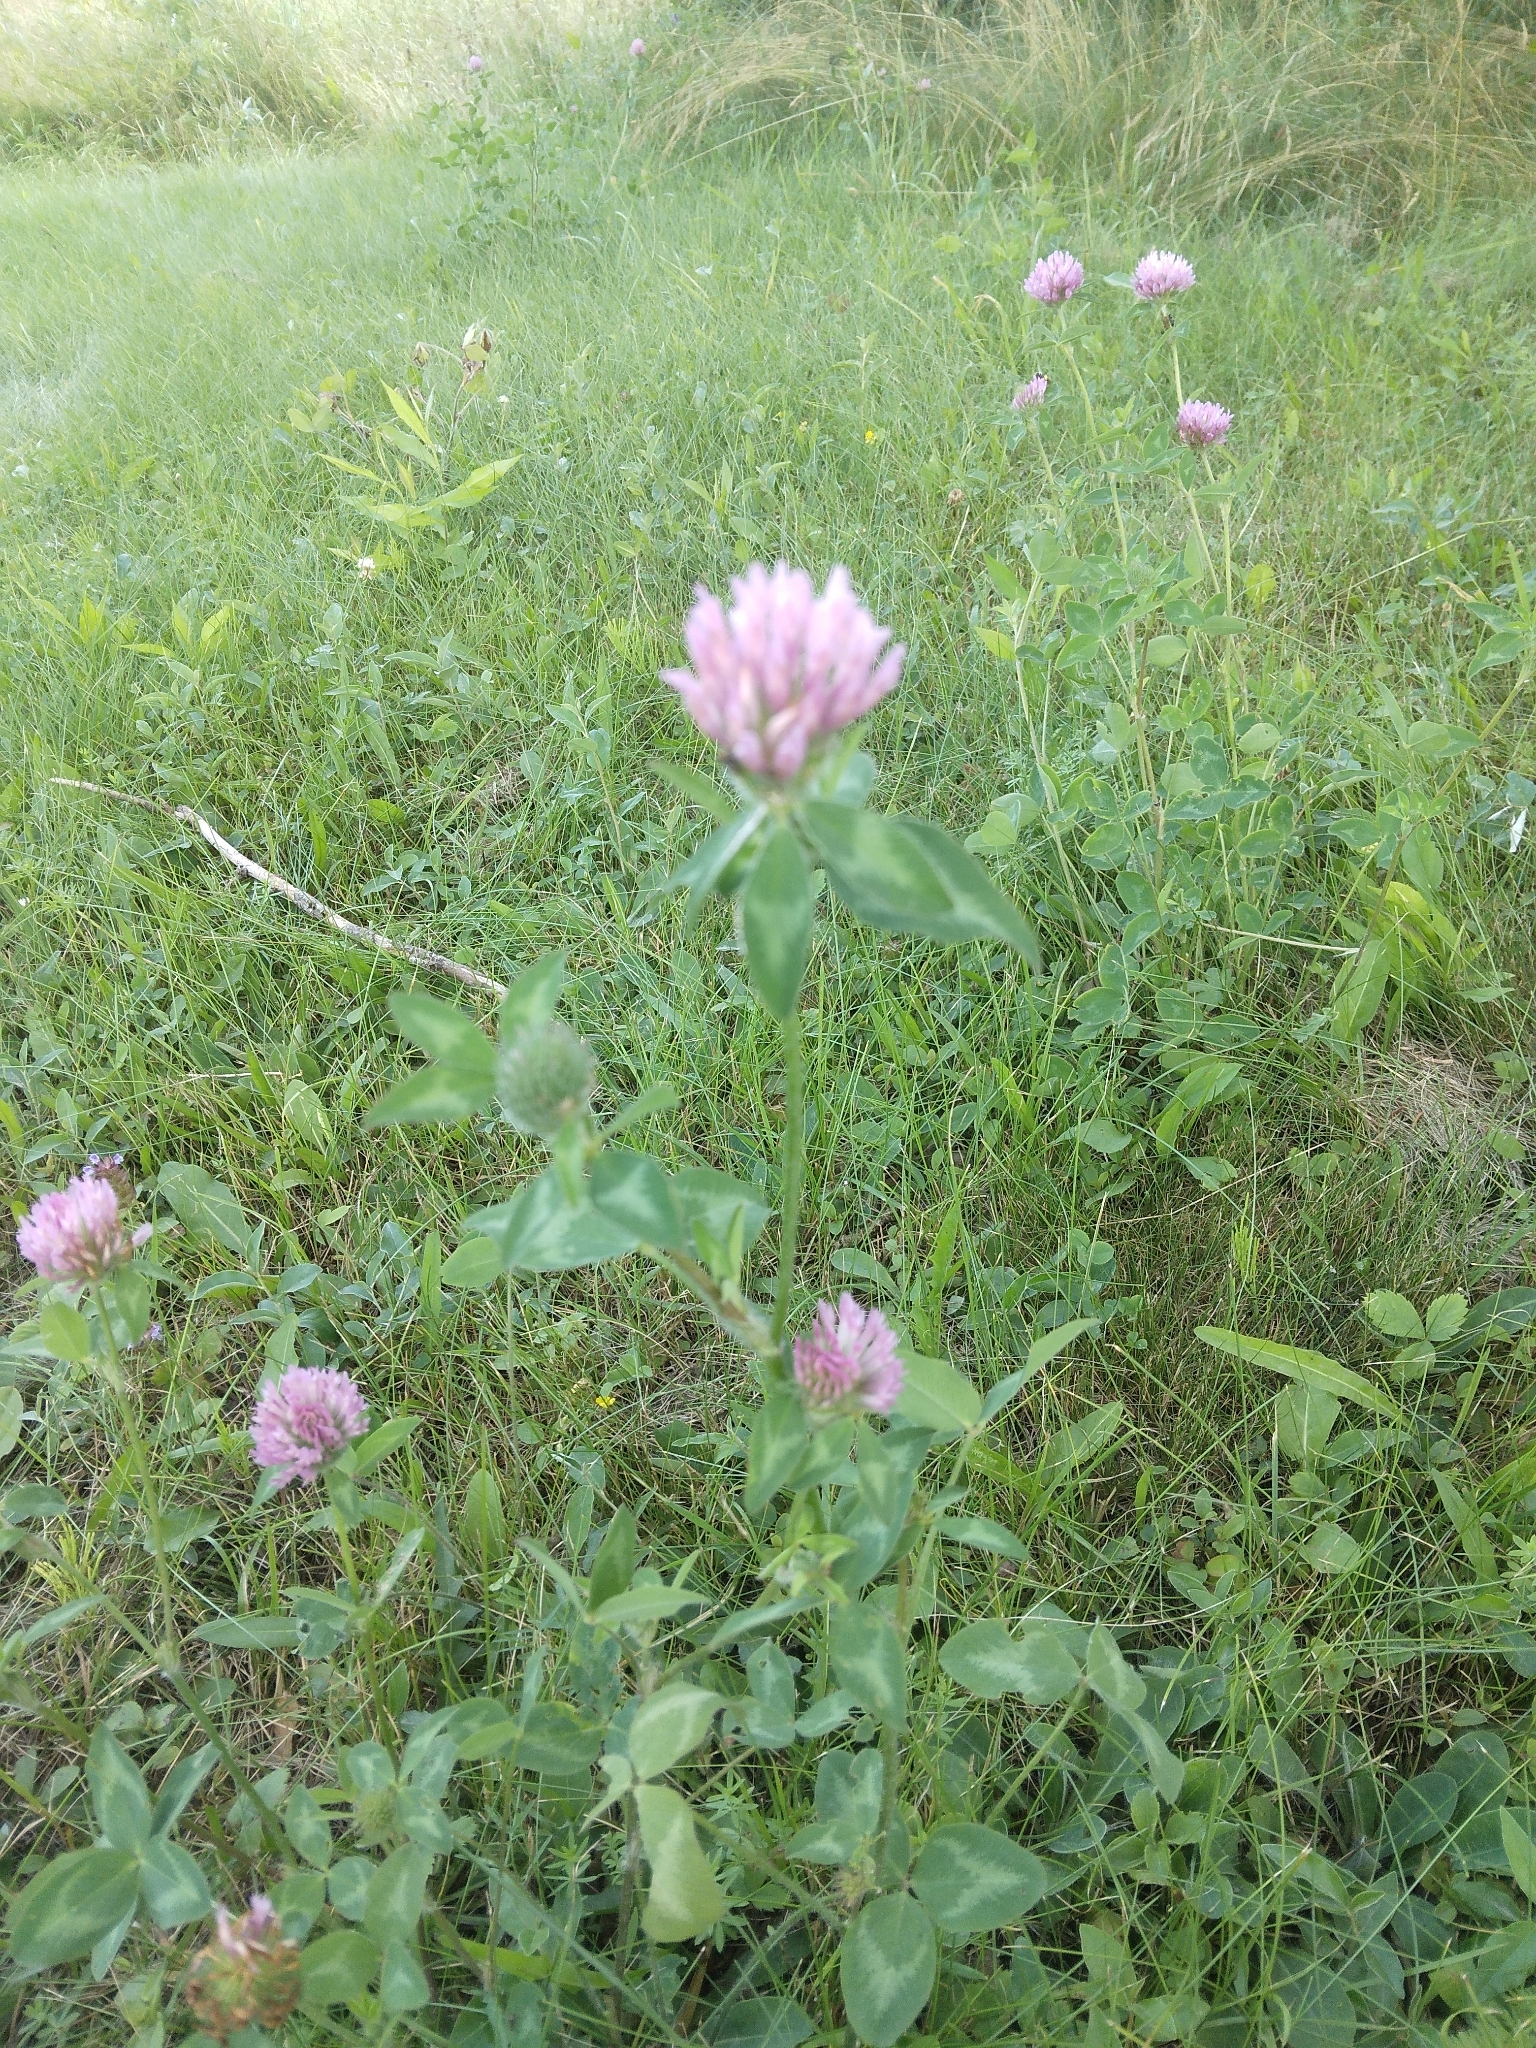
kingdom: Plantae
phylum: Tracheophyta
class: Magnoliopsida
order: Fabales
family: Fabaceae
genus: Trifolium
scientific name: Trifolium pratense
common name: Red clover
